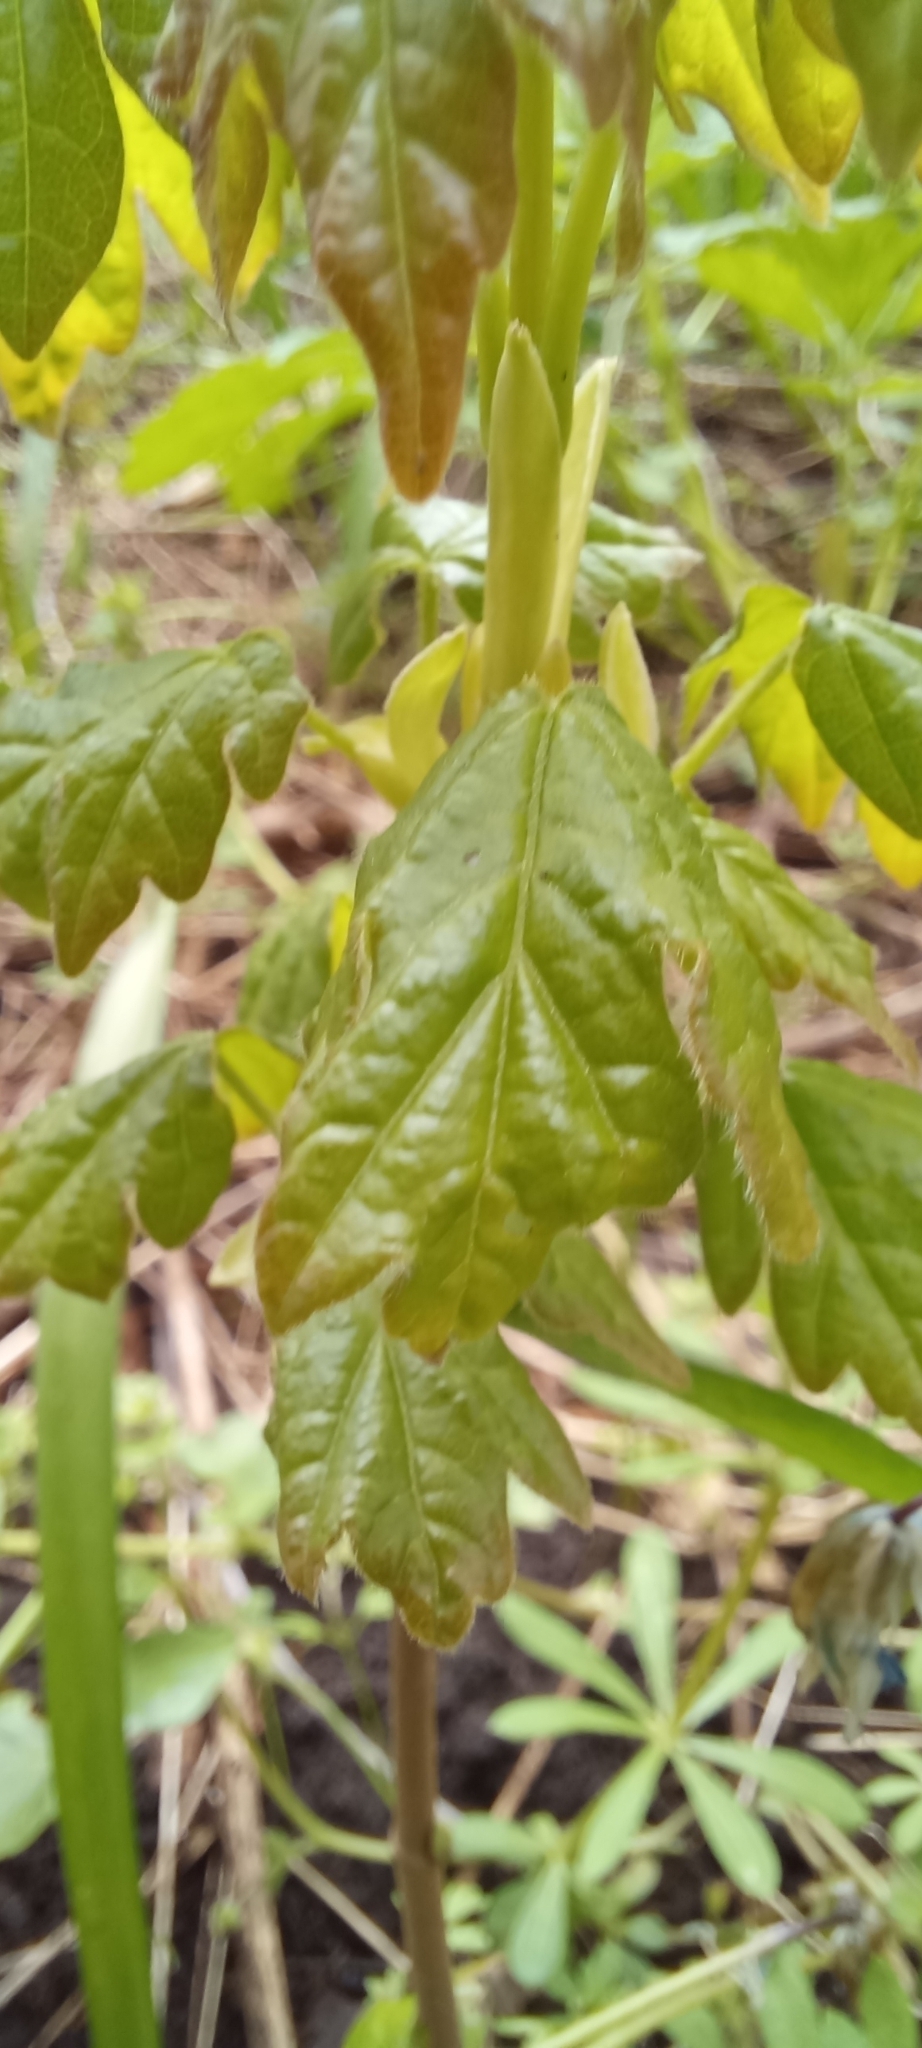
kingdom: Plantae
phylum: Tracheophyta
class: Magnoliopsida
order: Sapindales
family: Sapindaceae
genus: Acer
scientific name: Acer campestre
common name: Field maple
